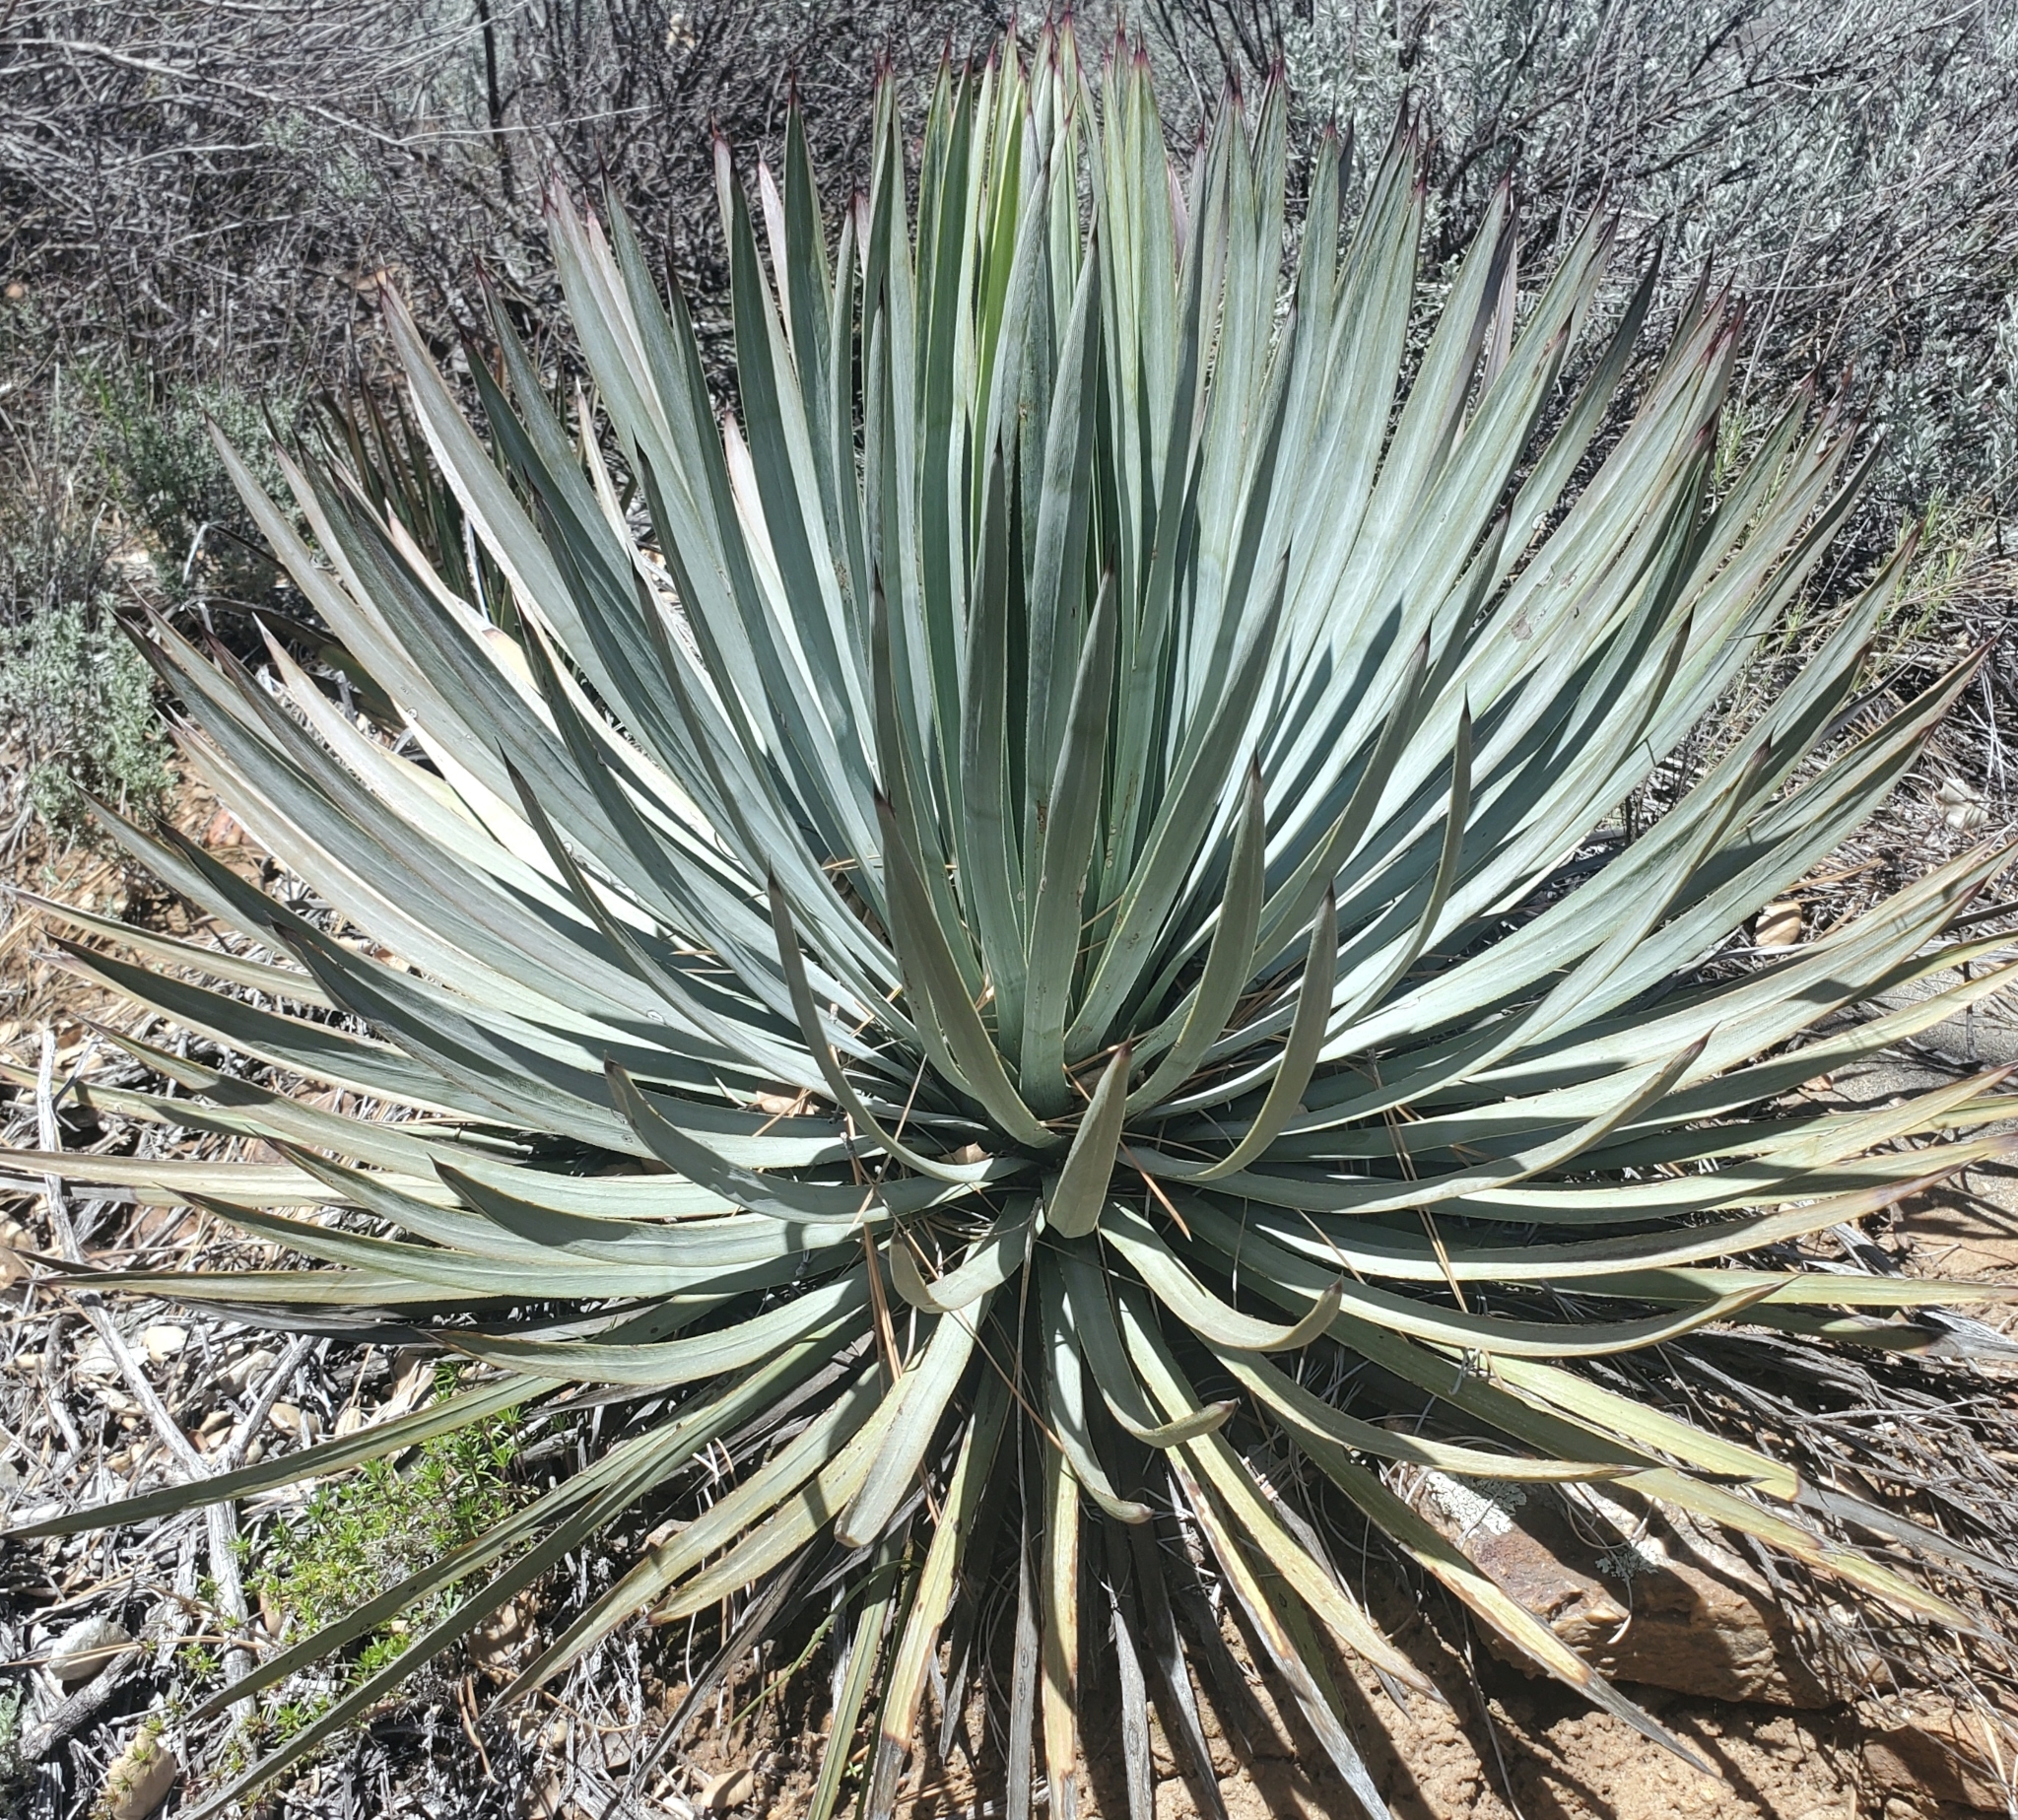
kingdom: Plantae
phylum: Tracheophyta
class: Liliopsida
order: Asparagales
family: Asparagaceae
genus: Hesperoyucca
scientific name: Hesperoyucca whipplei
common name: Our lord's-candle
